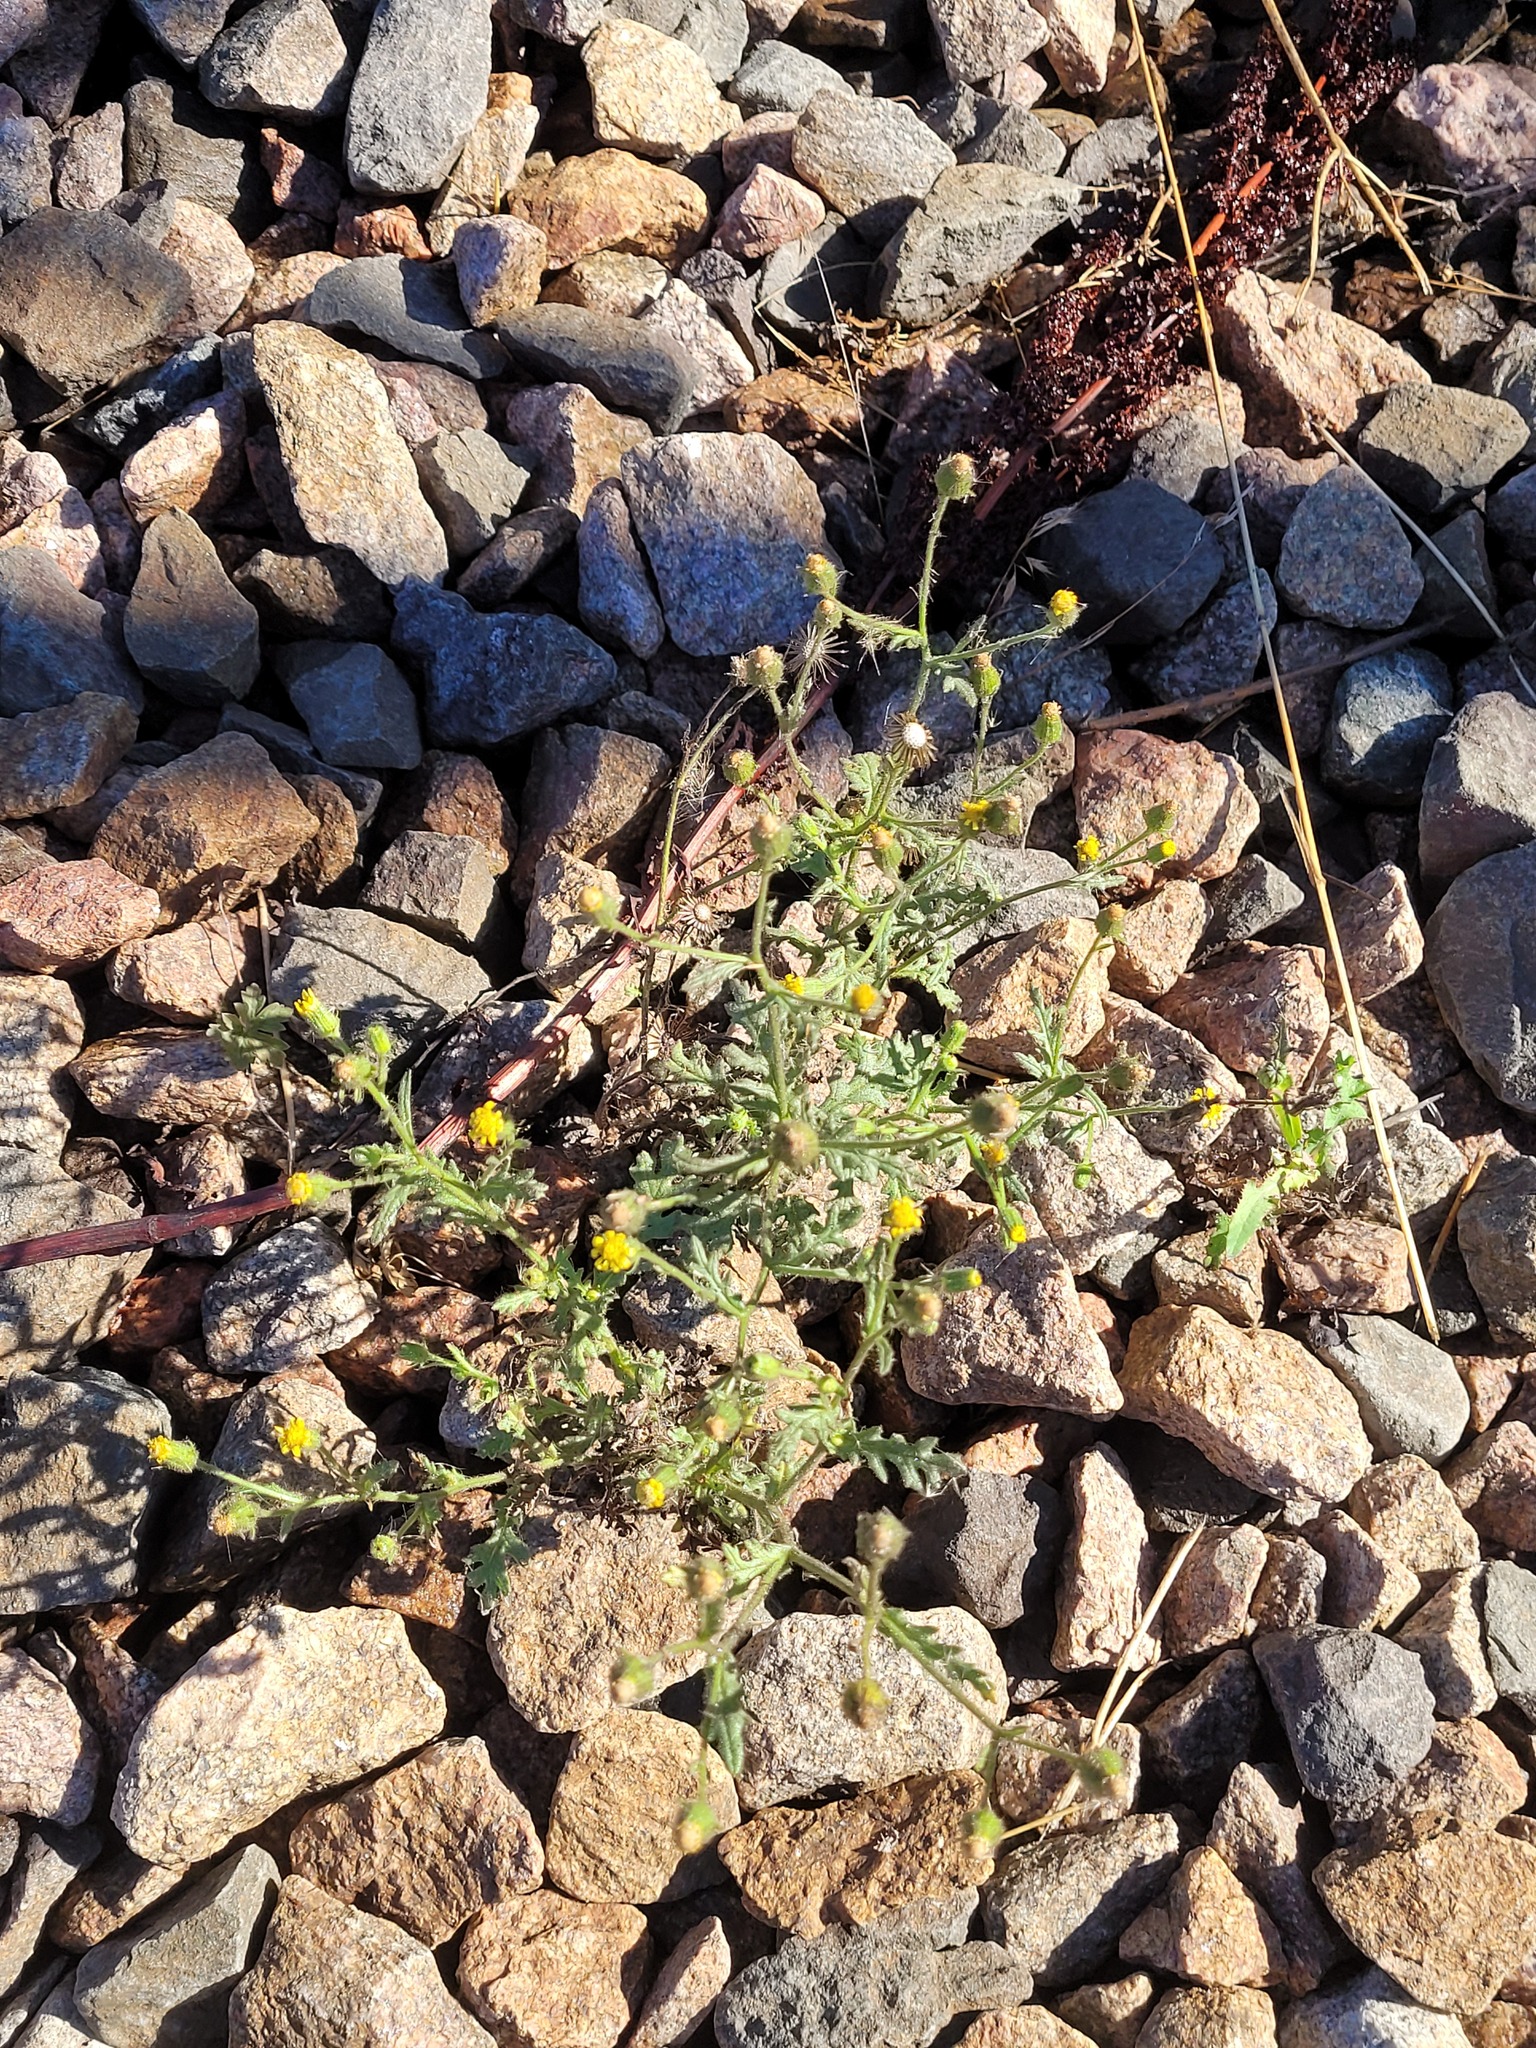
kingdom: Plantae
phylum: Tracheophyta
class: Magnoliopsida
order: Asterales
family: Asteraceae
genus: Senecio
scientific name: Senecio viscosus
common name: Sticky groundsel
